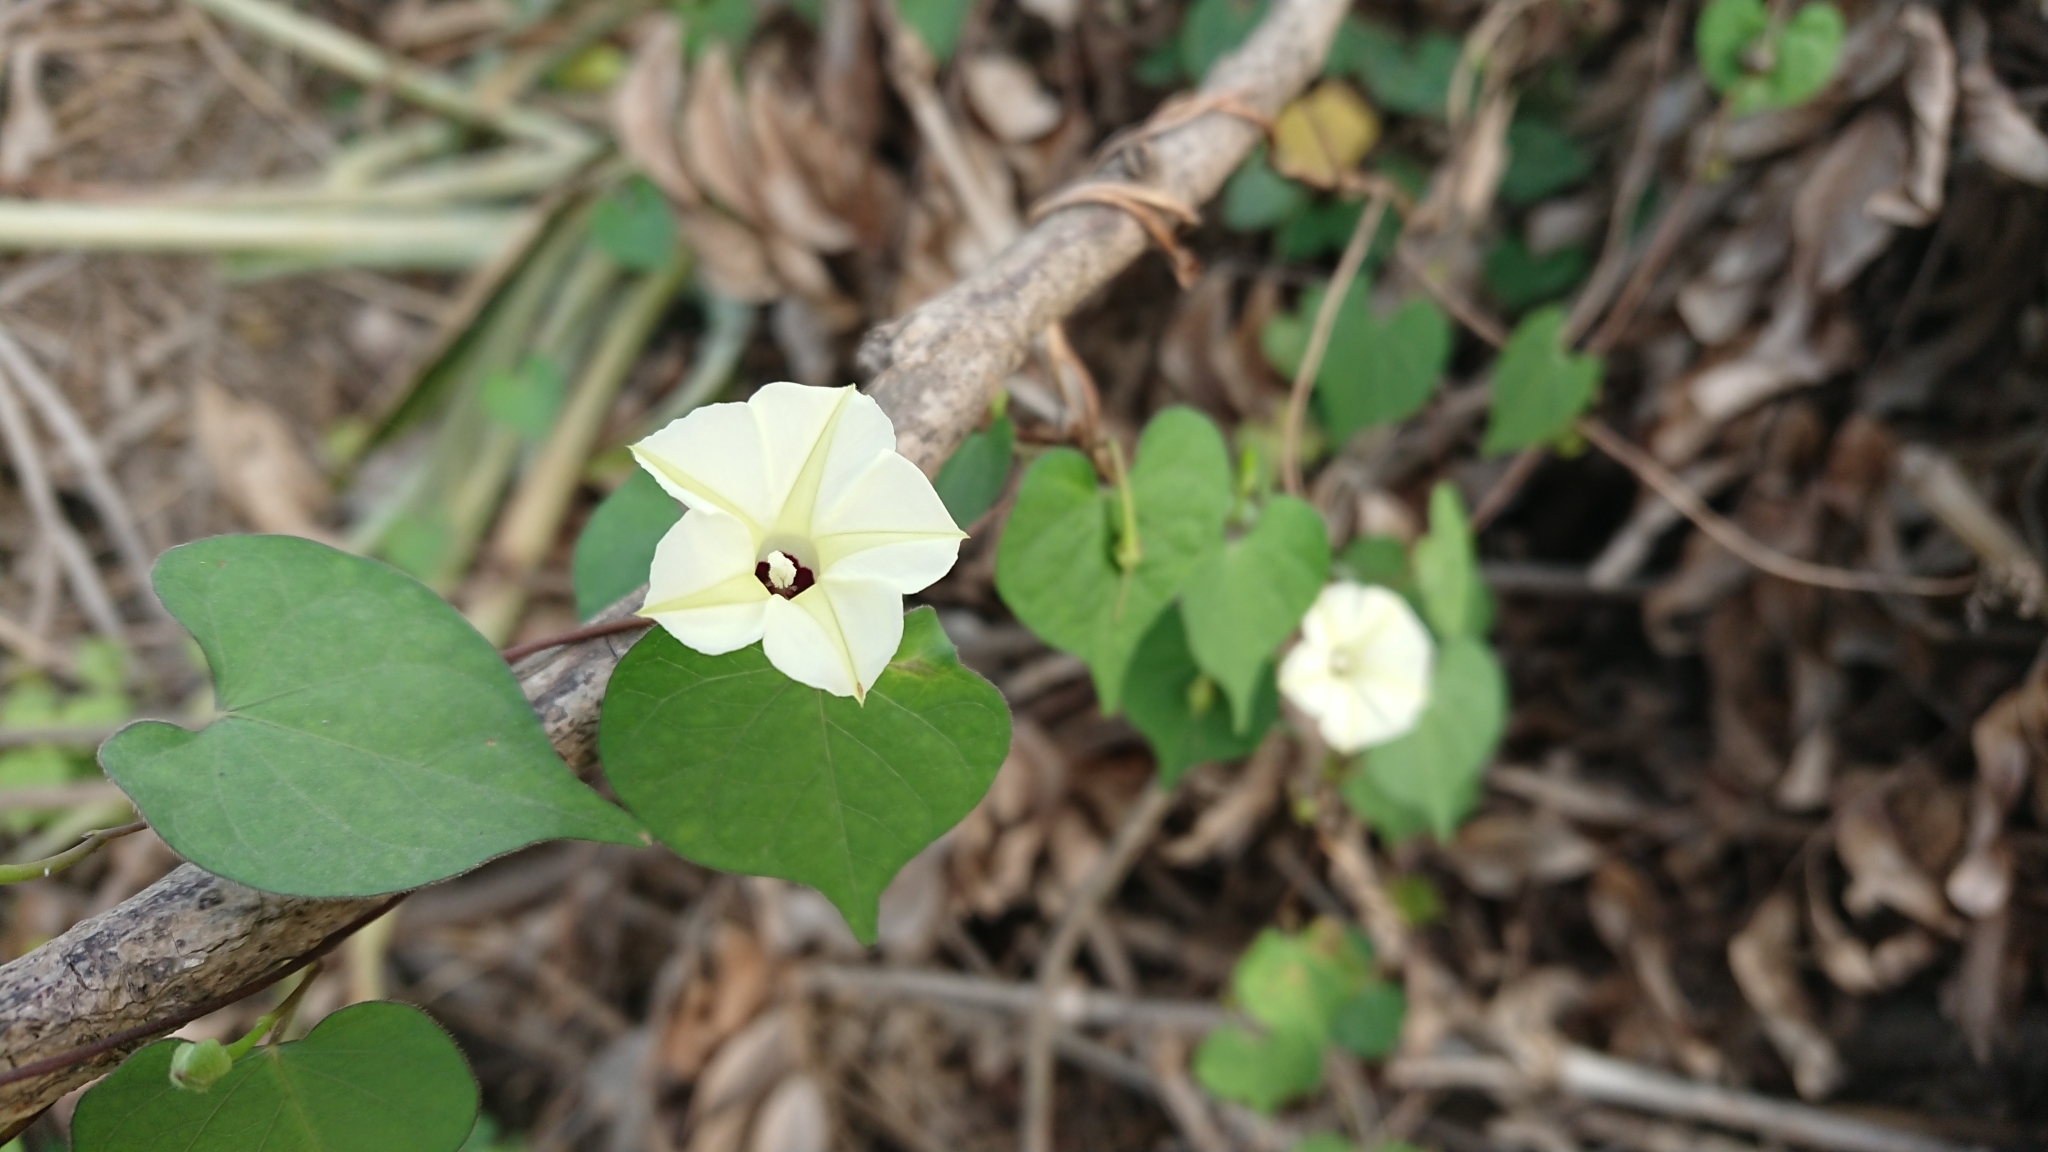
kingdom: Plantae
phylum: Tracheophyta
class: Magnoliopsida
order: Solanales
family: Convolvulaceae
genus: Ipomoea
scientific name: Ipomoea obscura
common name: Obscure morning-glory
